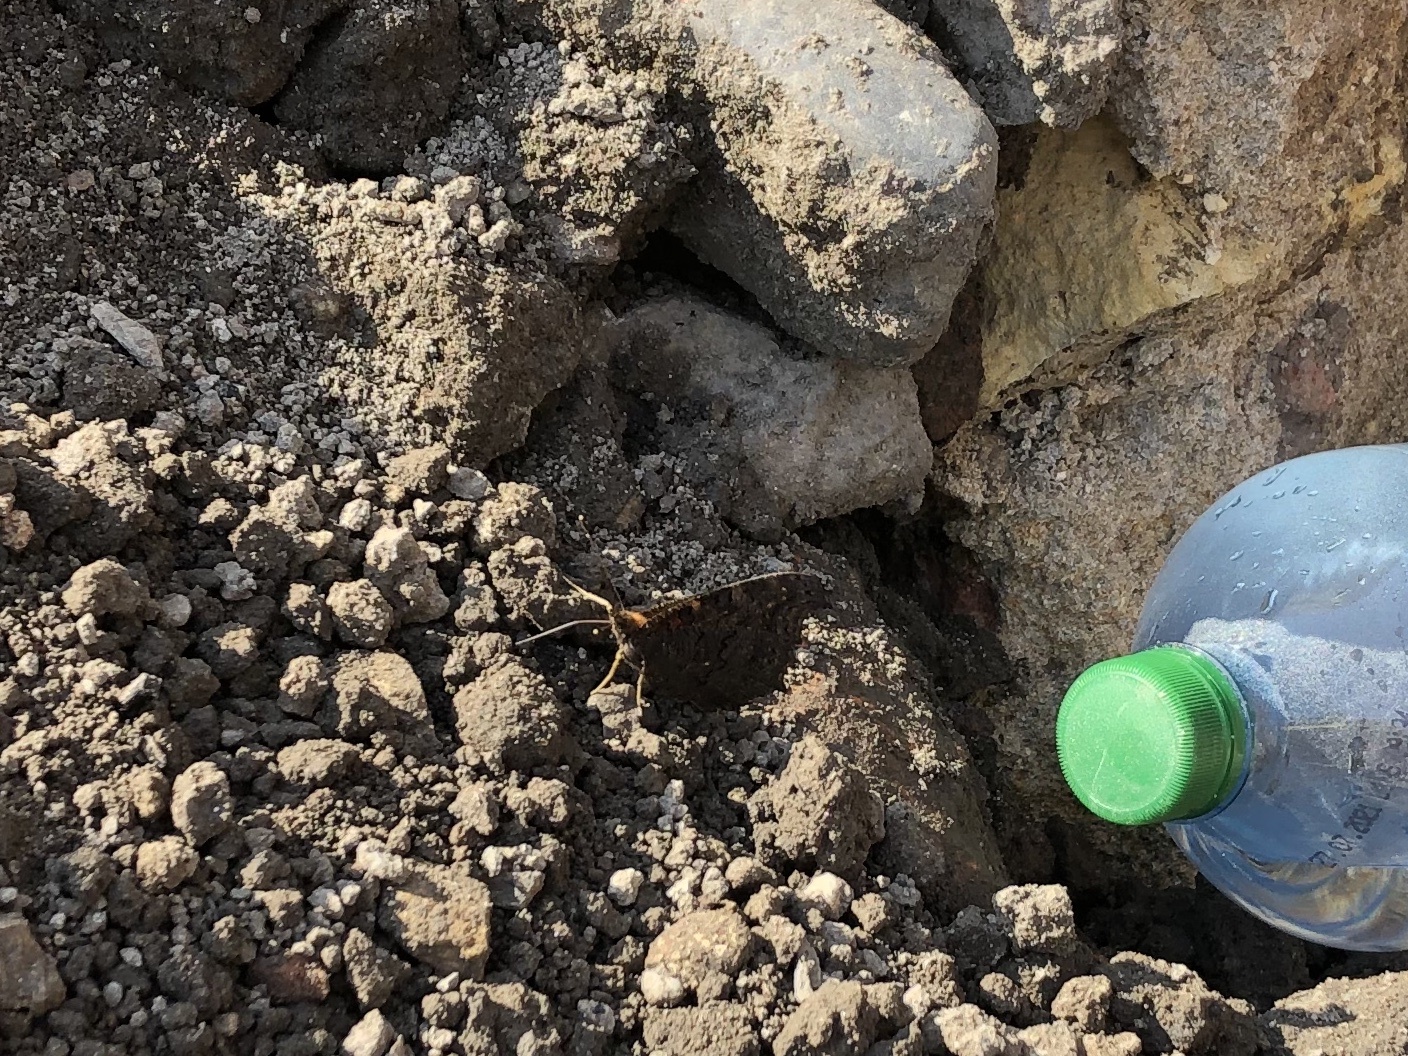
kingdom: Animalia
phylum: Arthropoda
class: Insecta
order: Lepidoptera
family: Nymphalidae
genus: Aglais
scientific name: Aglais io
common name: Peacock
